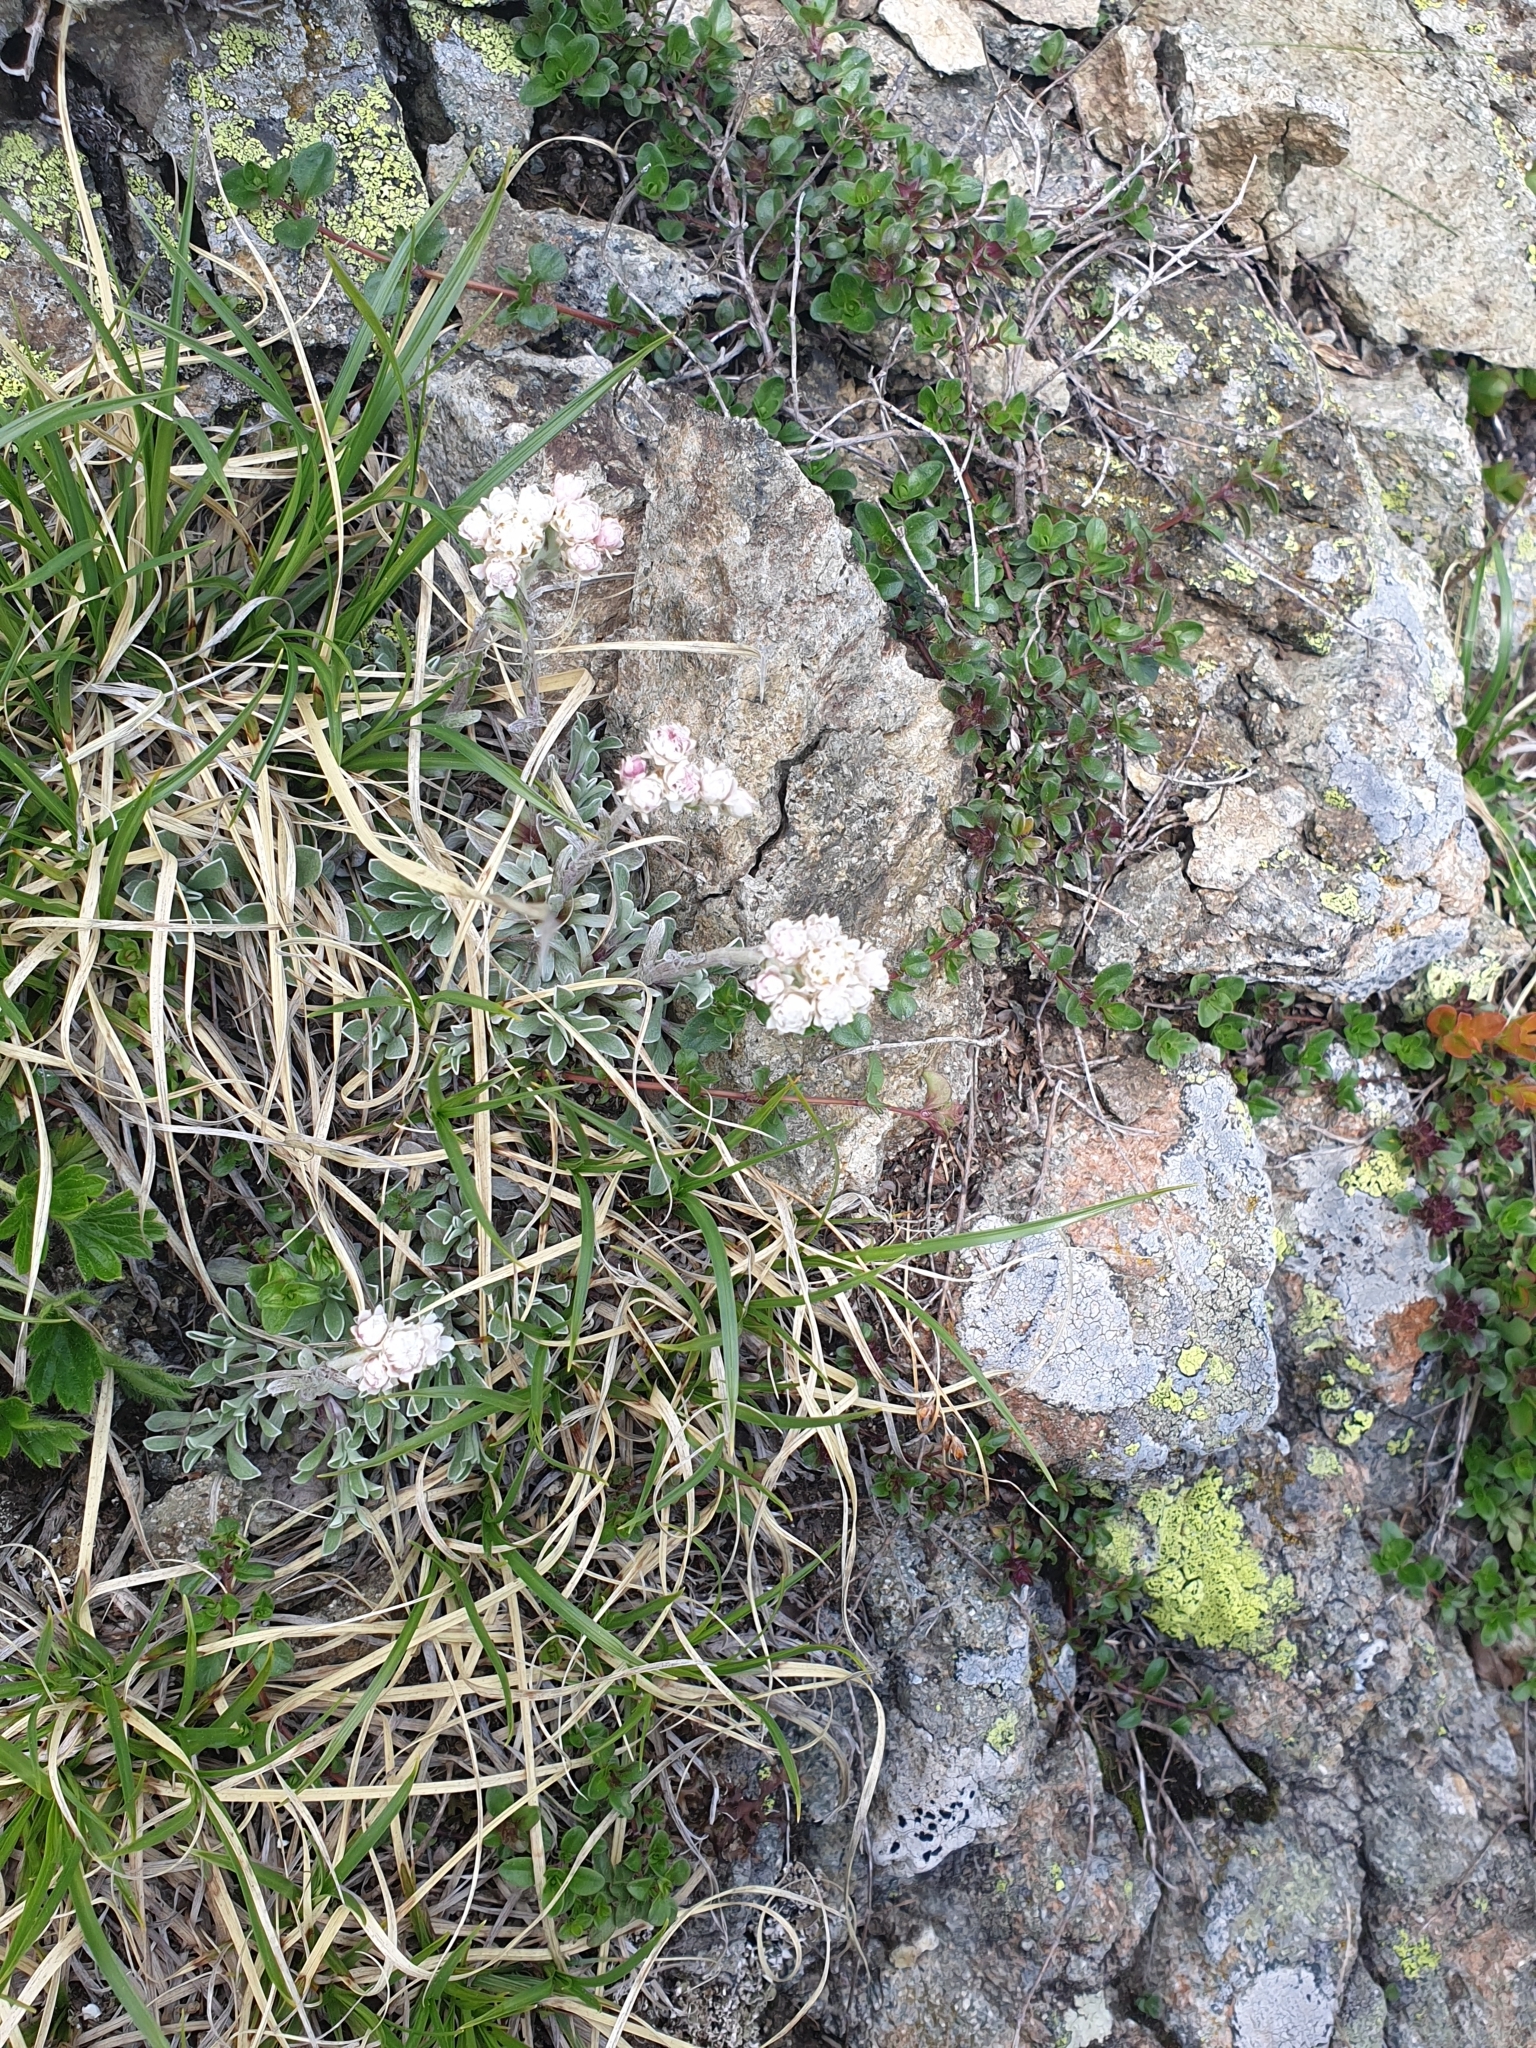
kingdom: Plantae
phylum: Tracheophyta
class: Magnoliopsida
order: Asterales
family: Asteraceae
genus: Antennaria
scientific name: Antennaria dioica
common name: Mountain everlasting
